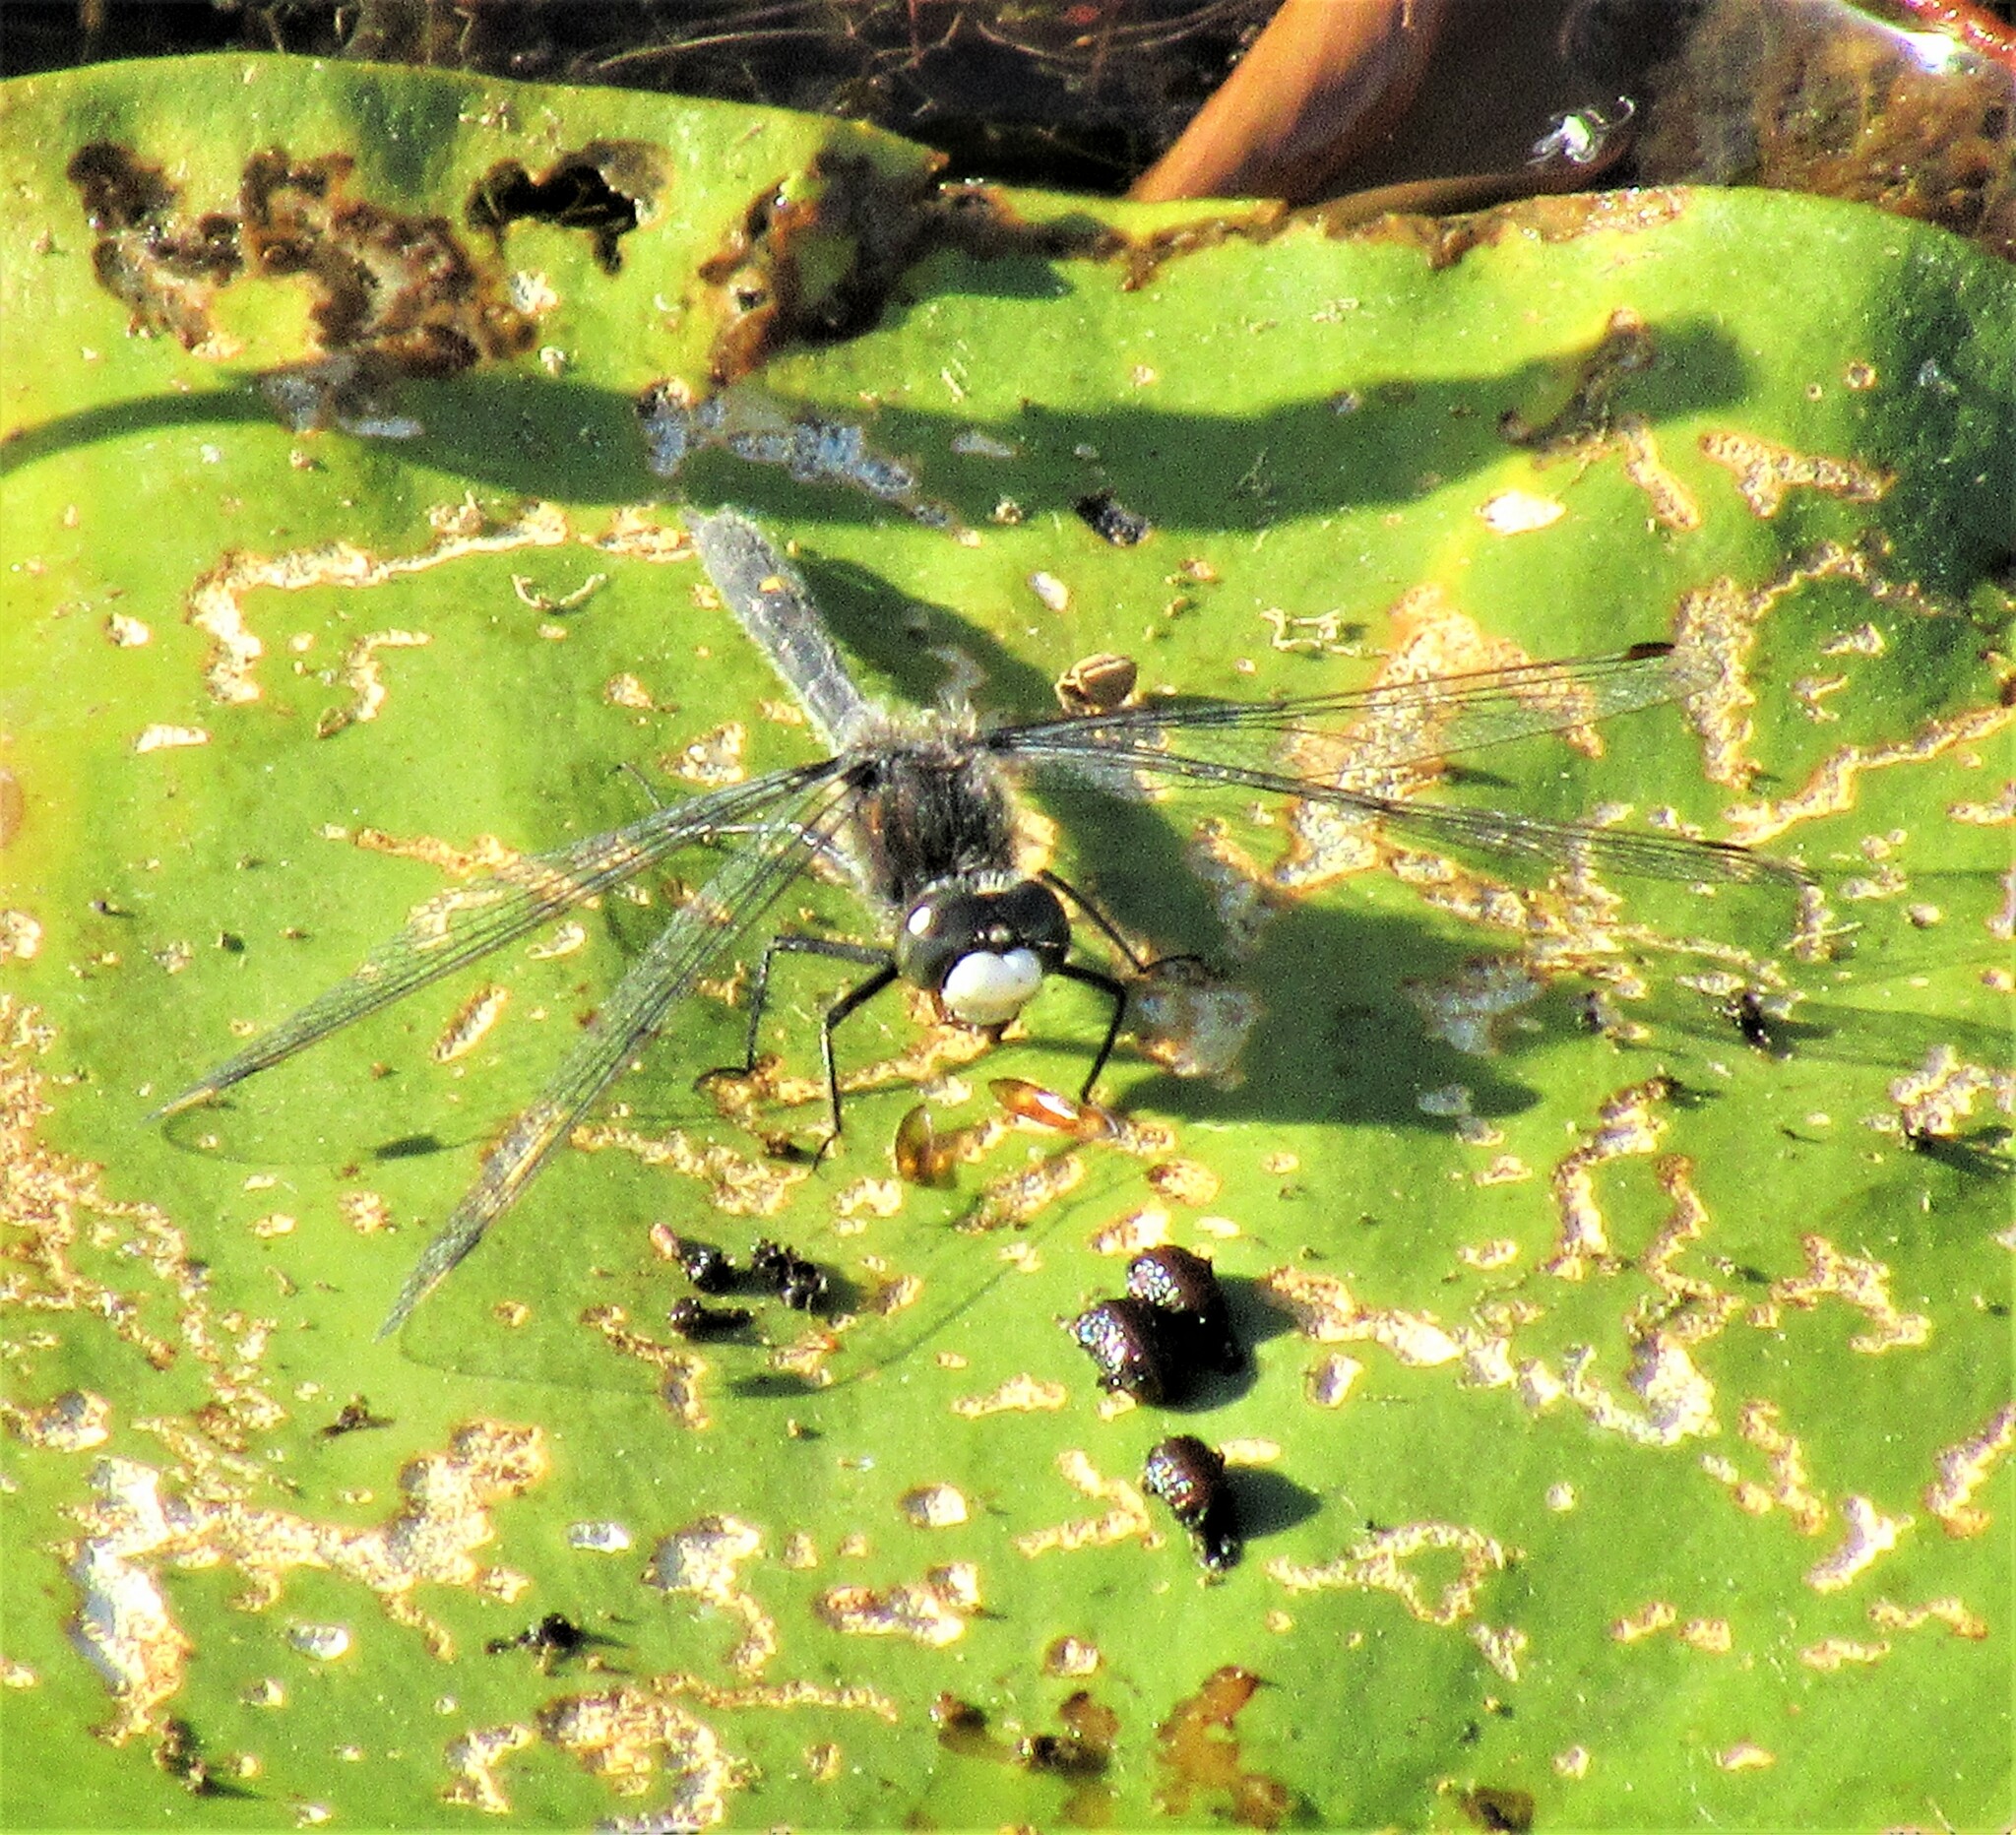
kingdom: Animalia
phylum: Arthropoda
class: Insecta
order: Odonata
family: Libellulidae
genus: Leucorrhinia
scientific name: Leucorrhinia intacta
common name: Dot-tailed whiteface
